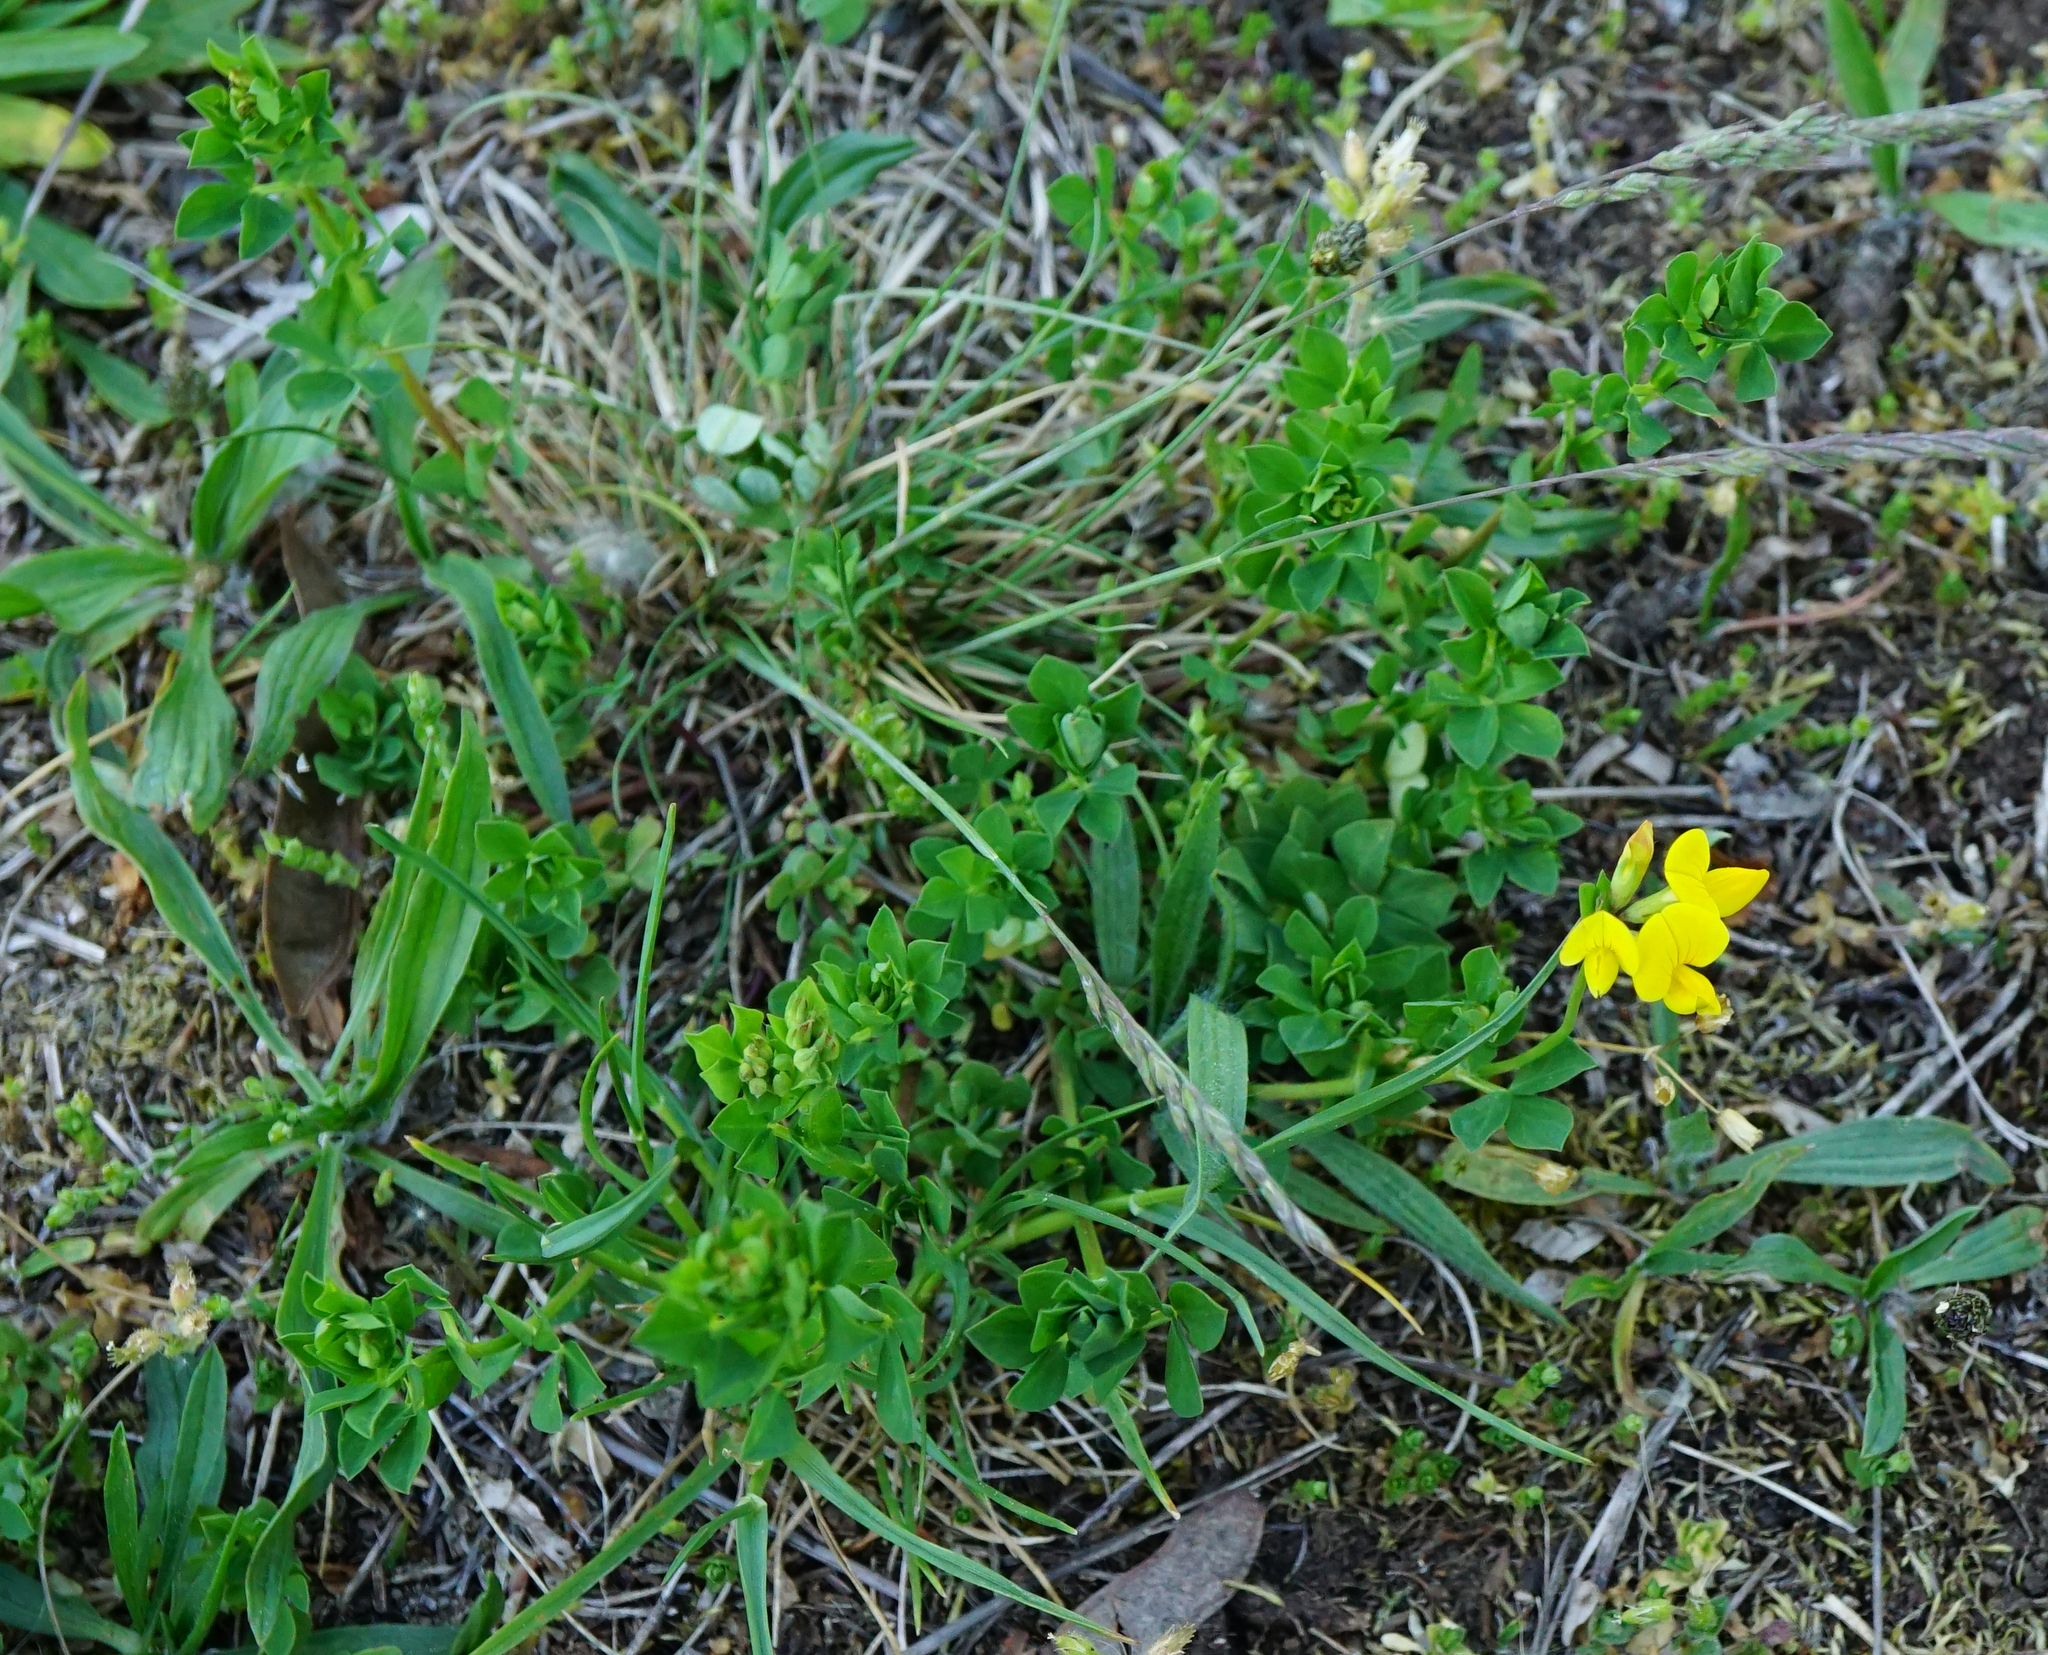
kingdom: Plantae
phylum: Tracheophyta
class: Magnoliopsida
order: Fabales
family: Fabaceae
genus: Lotus
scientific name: Lotus corniculatus
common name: Common bird's-foot-trefoil
